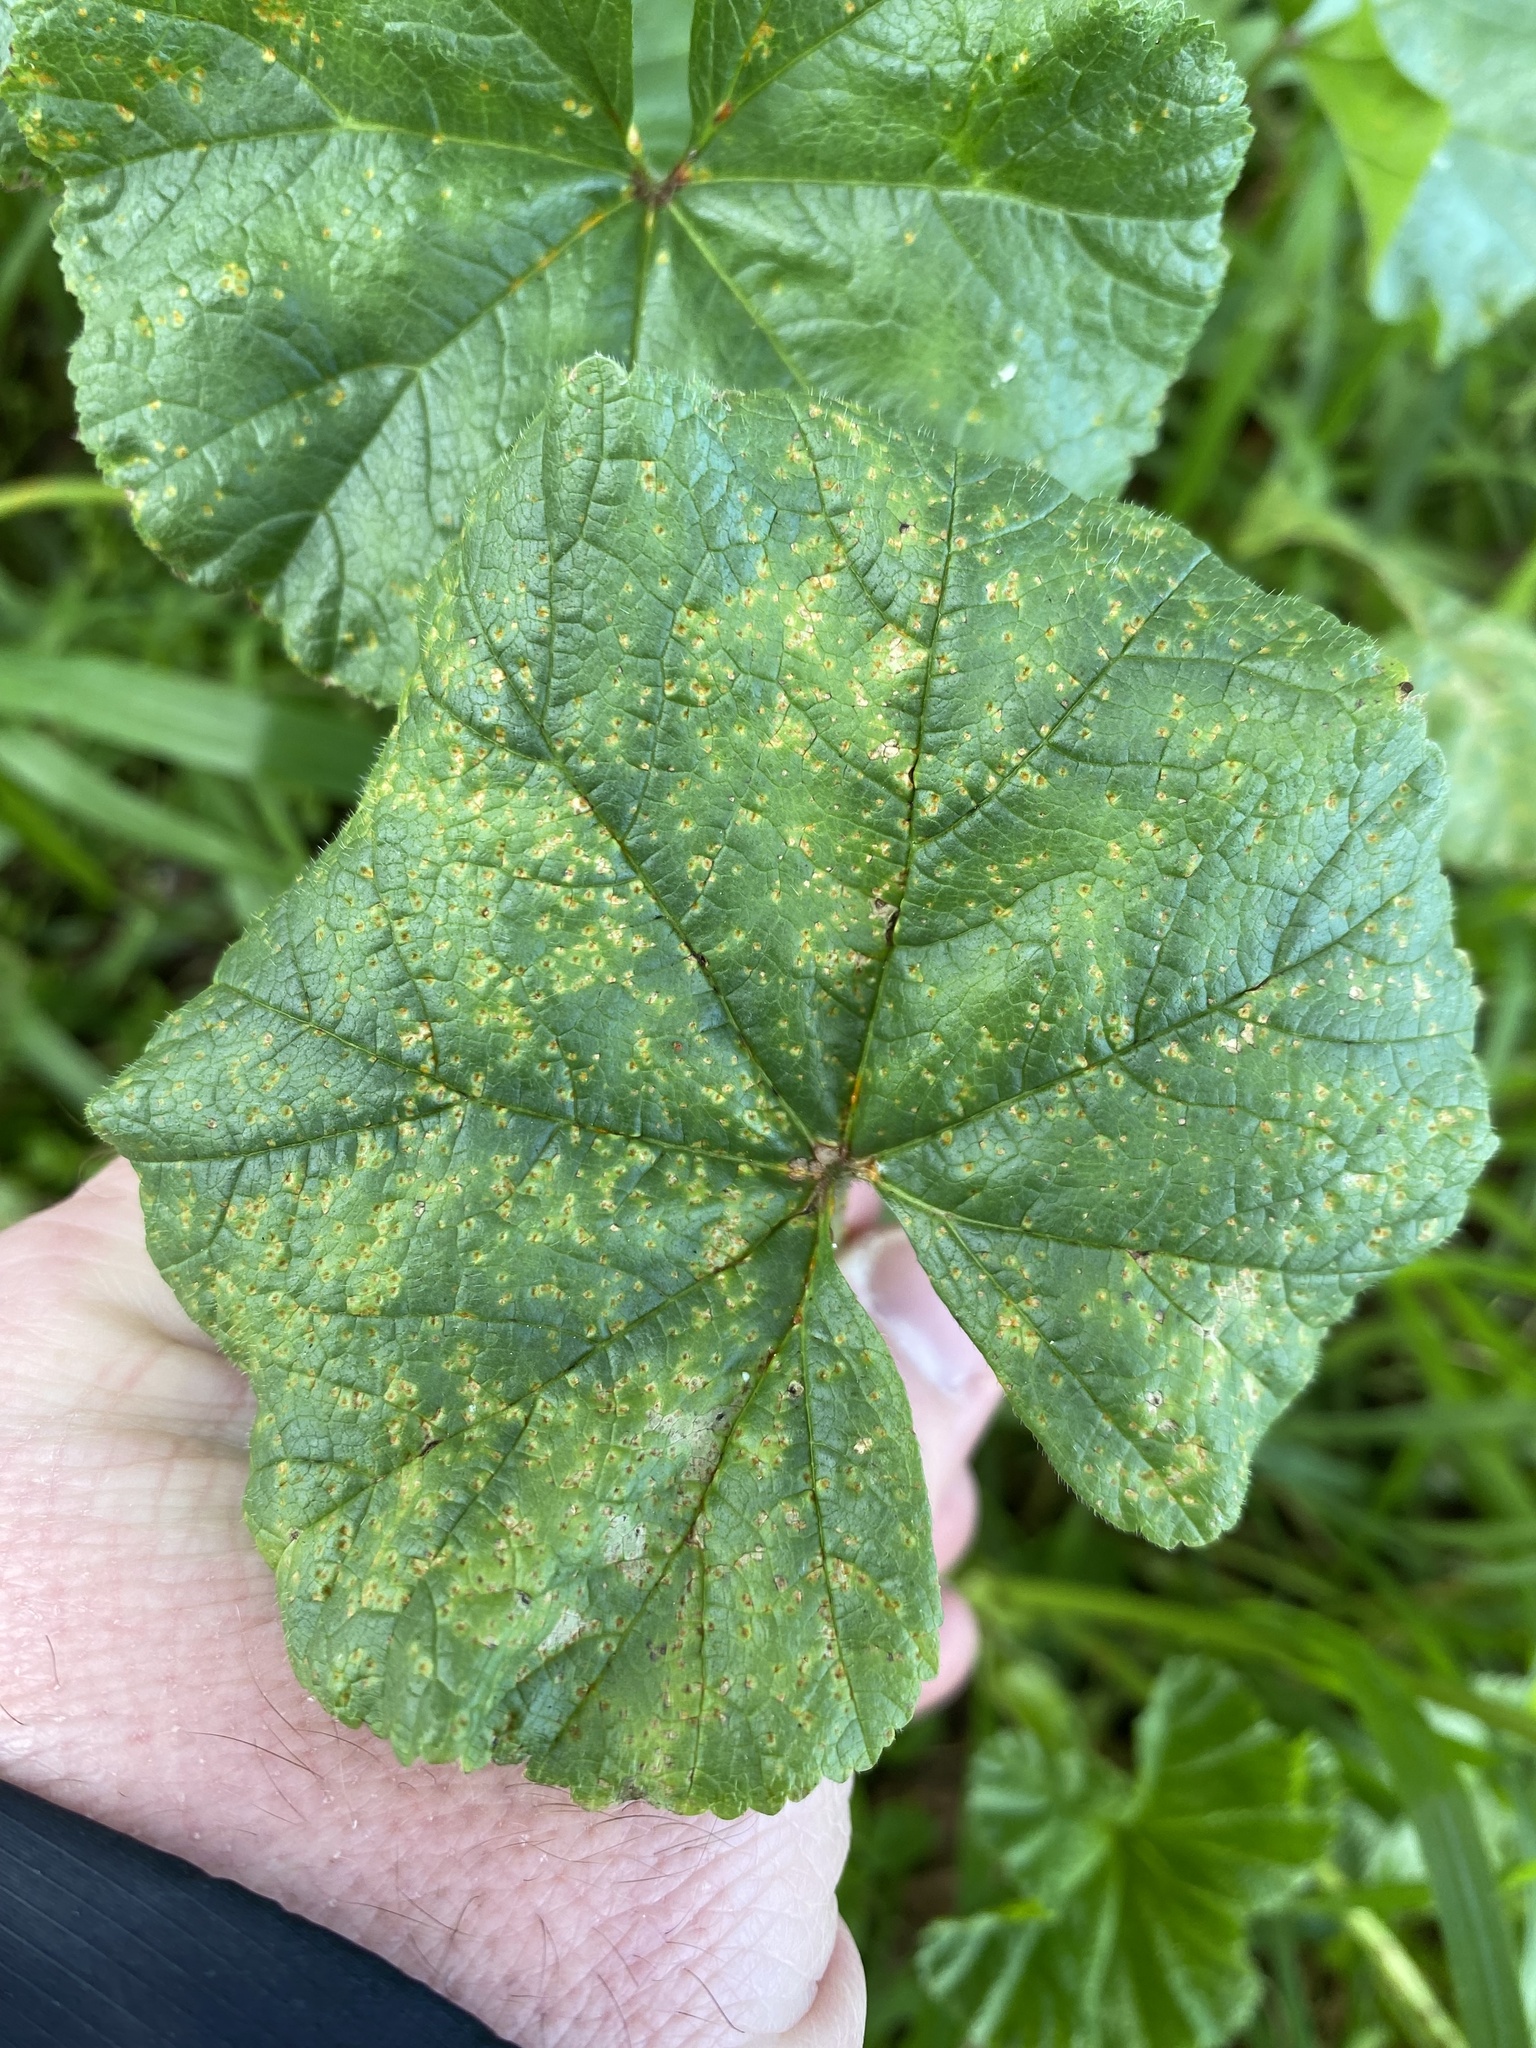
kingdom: Fungi
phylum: Basidiomycota
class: Pucciniomycetes
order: Pucciniales
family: Pucciniaceae
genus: Puccinia
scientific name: Puccinia malvacearum
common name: Hollyhock rust
